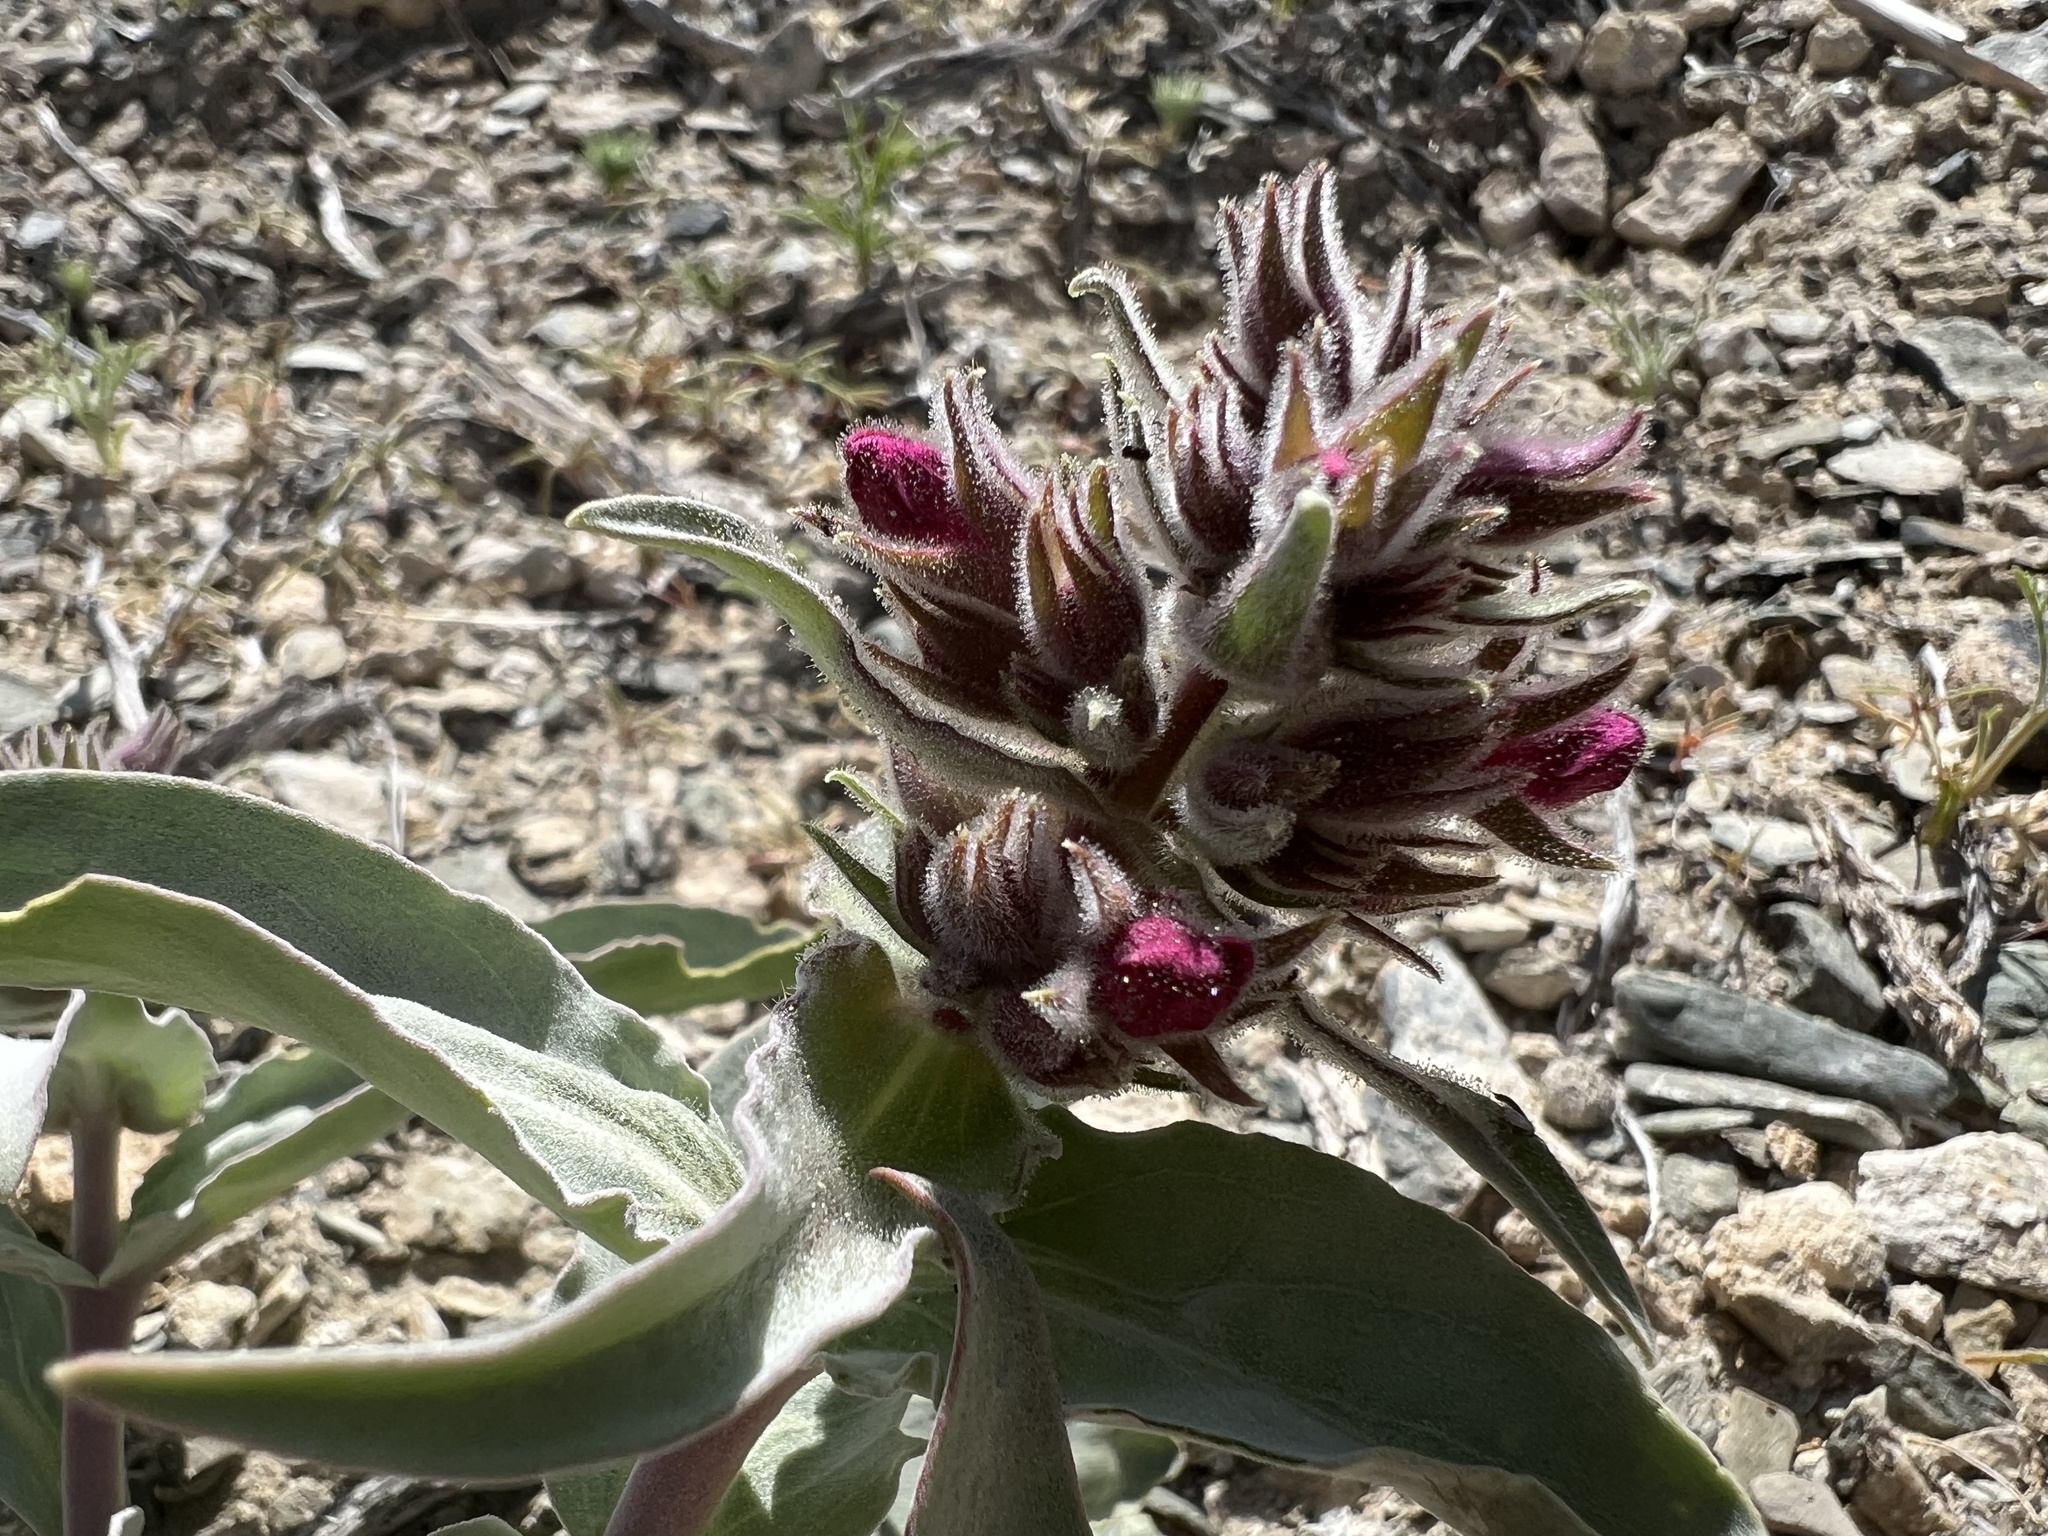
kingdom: Plantae
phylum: Tracheophyta
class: Magnoliopsida
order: Lamiales
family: Plantaginaceae
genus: Penstemon
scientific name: Penstemon monoensis
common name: Mono penstemon
